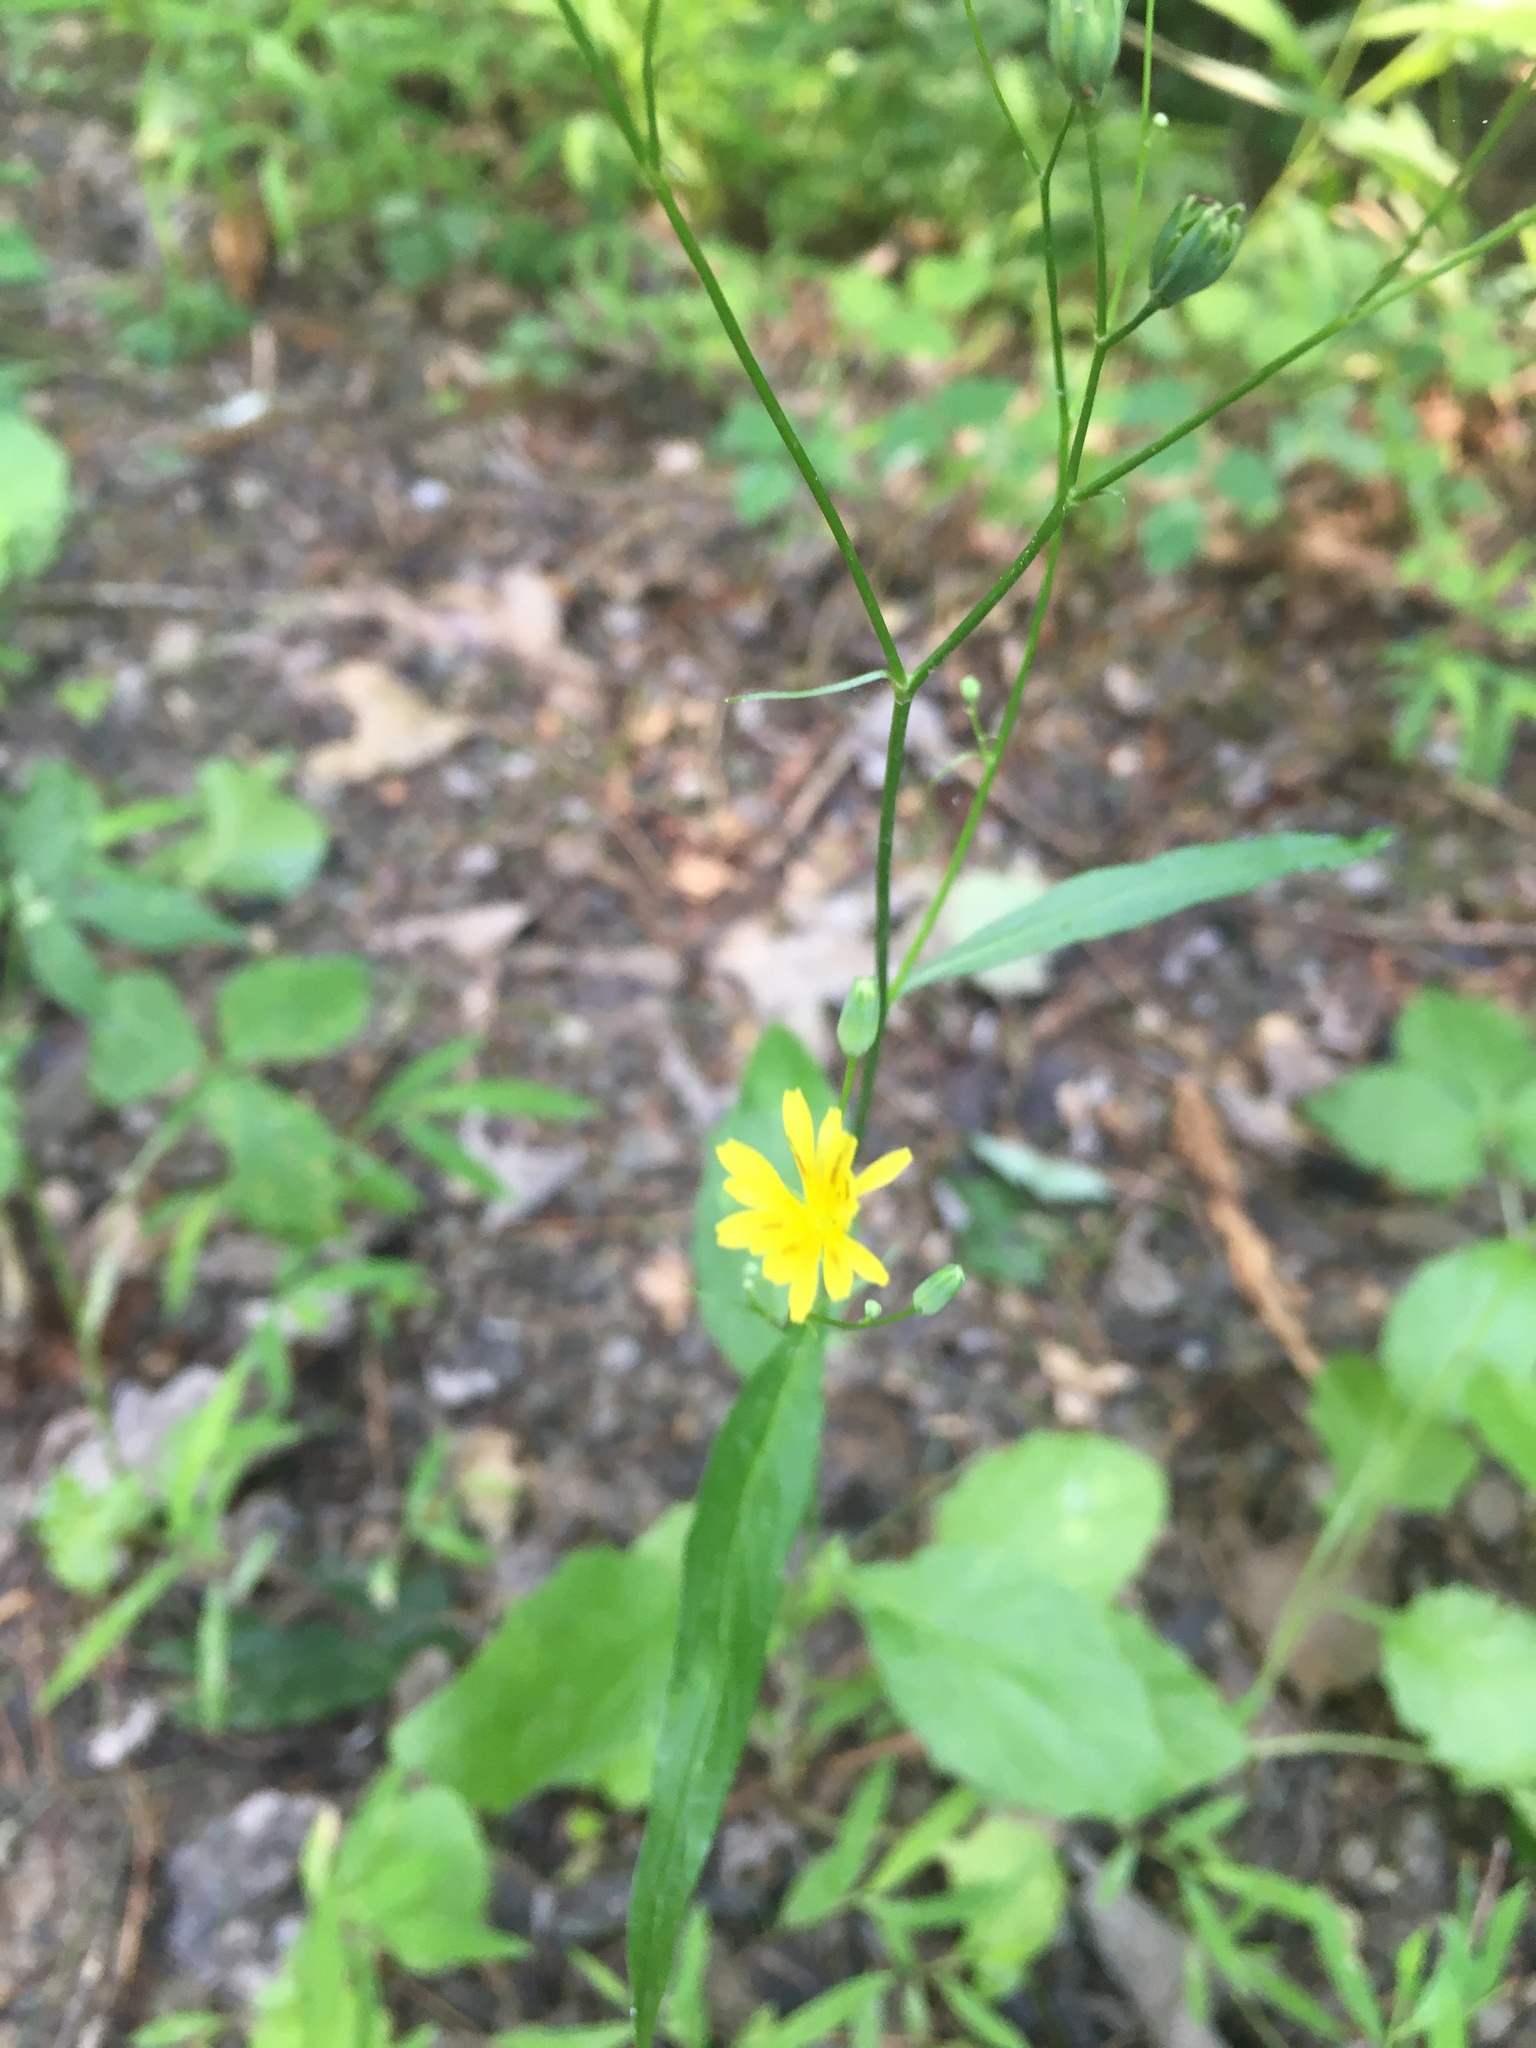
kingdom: Plantae
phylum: Tracheophyta
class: Magnoliopsida
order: Asterales
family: Asteraceae
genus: Lapsana
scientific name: Lapsana communis
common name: Nipplewort
